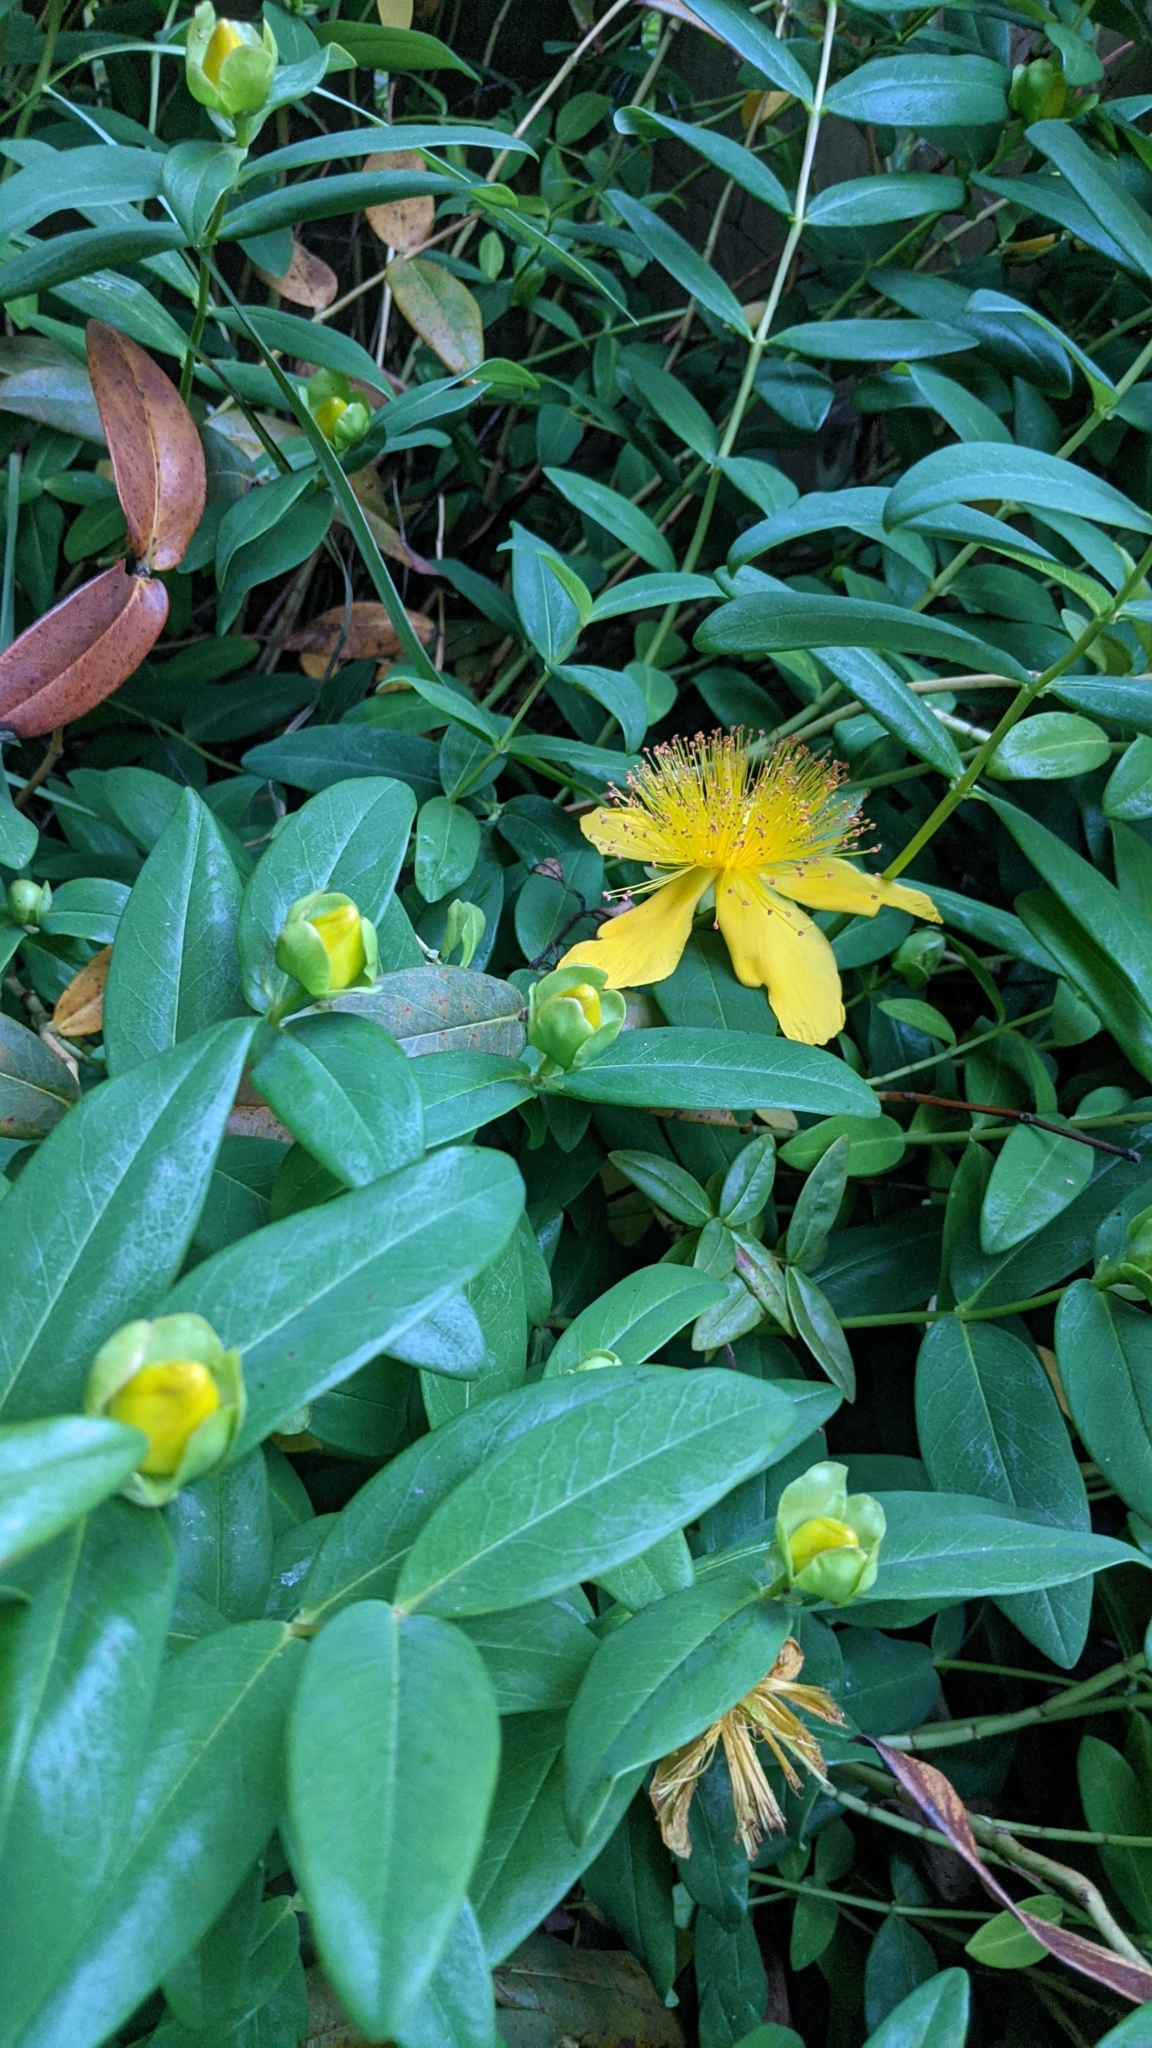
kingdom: Plantae
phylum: Tracheophyta
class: Magnoliopsida
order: Malpighiales
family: Hypericaceae
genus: Hypericum
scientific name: Hypericum calycinum
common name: Rose-of-sharon
